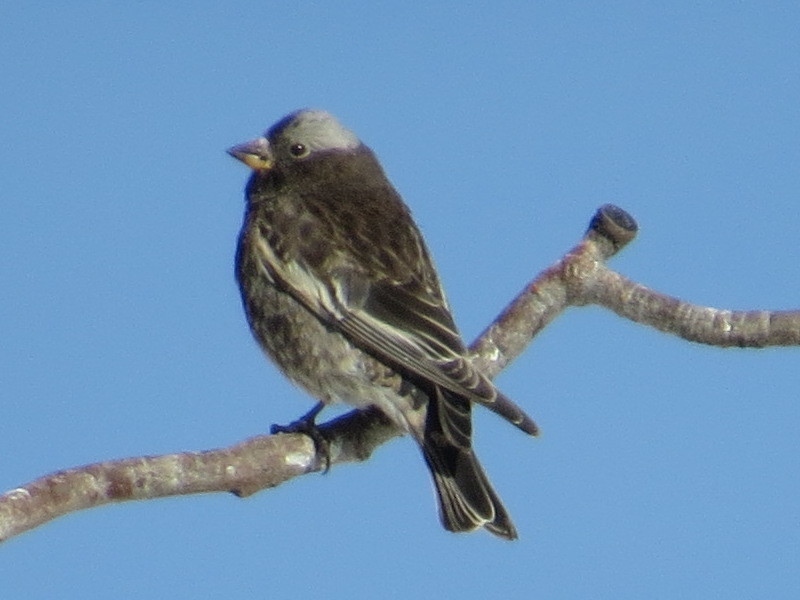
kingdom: Animalia
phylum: Chordata
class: Aves
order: Passeriformes
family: Fringillidae
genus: Leucosticte
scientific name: Leucosticte atrata
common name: Black rosy-finch
